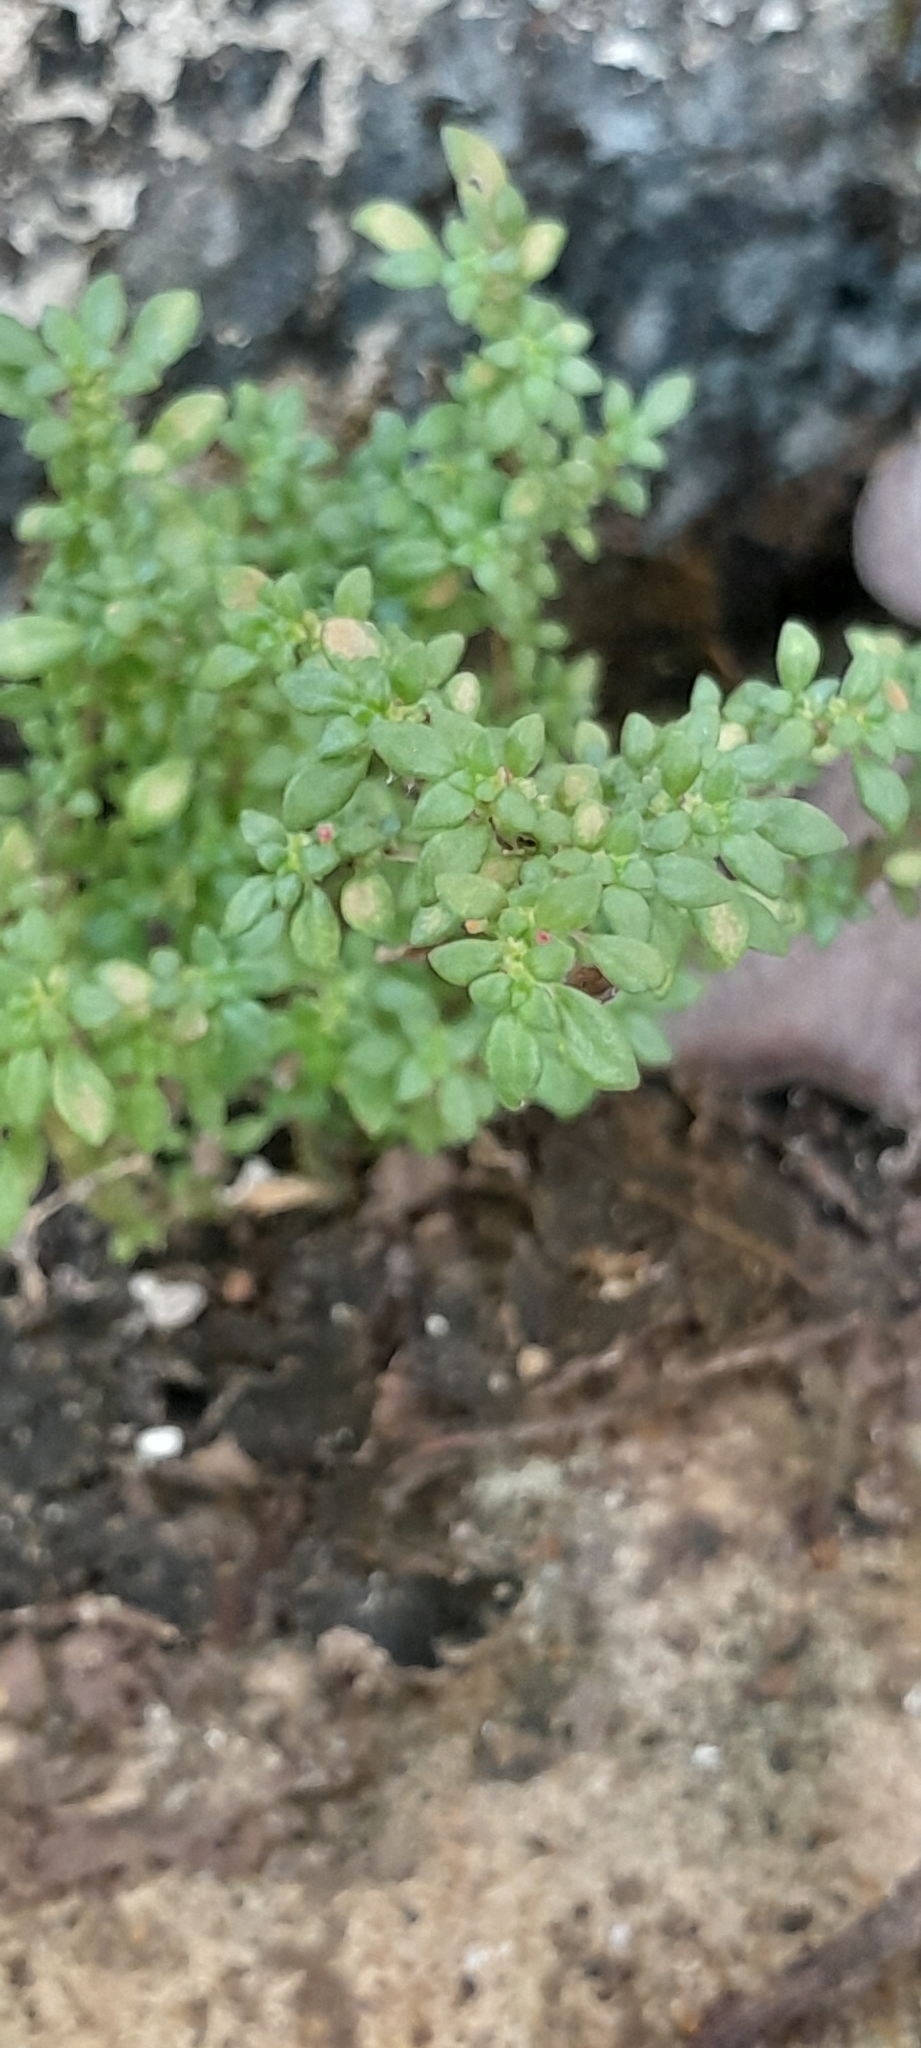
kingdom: Plantae
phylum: Tracheophyta
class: Magnoliopsida
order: Rosales
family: Urticaceae
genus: Pilea
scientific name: Pilea microphylla
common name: Artillery-plant
